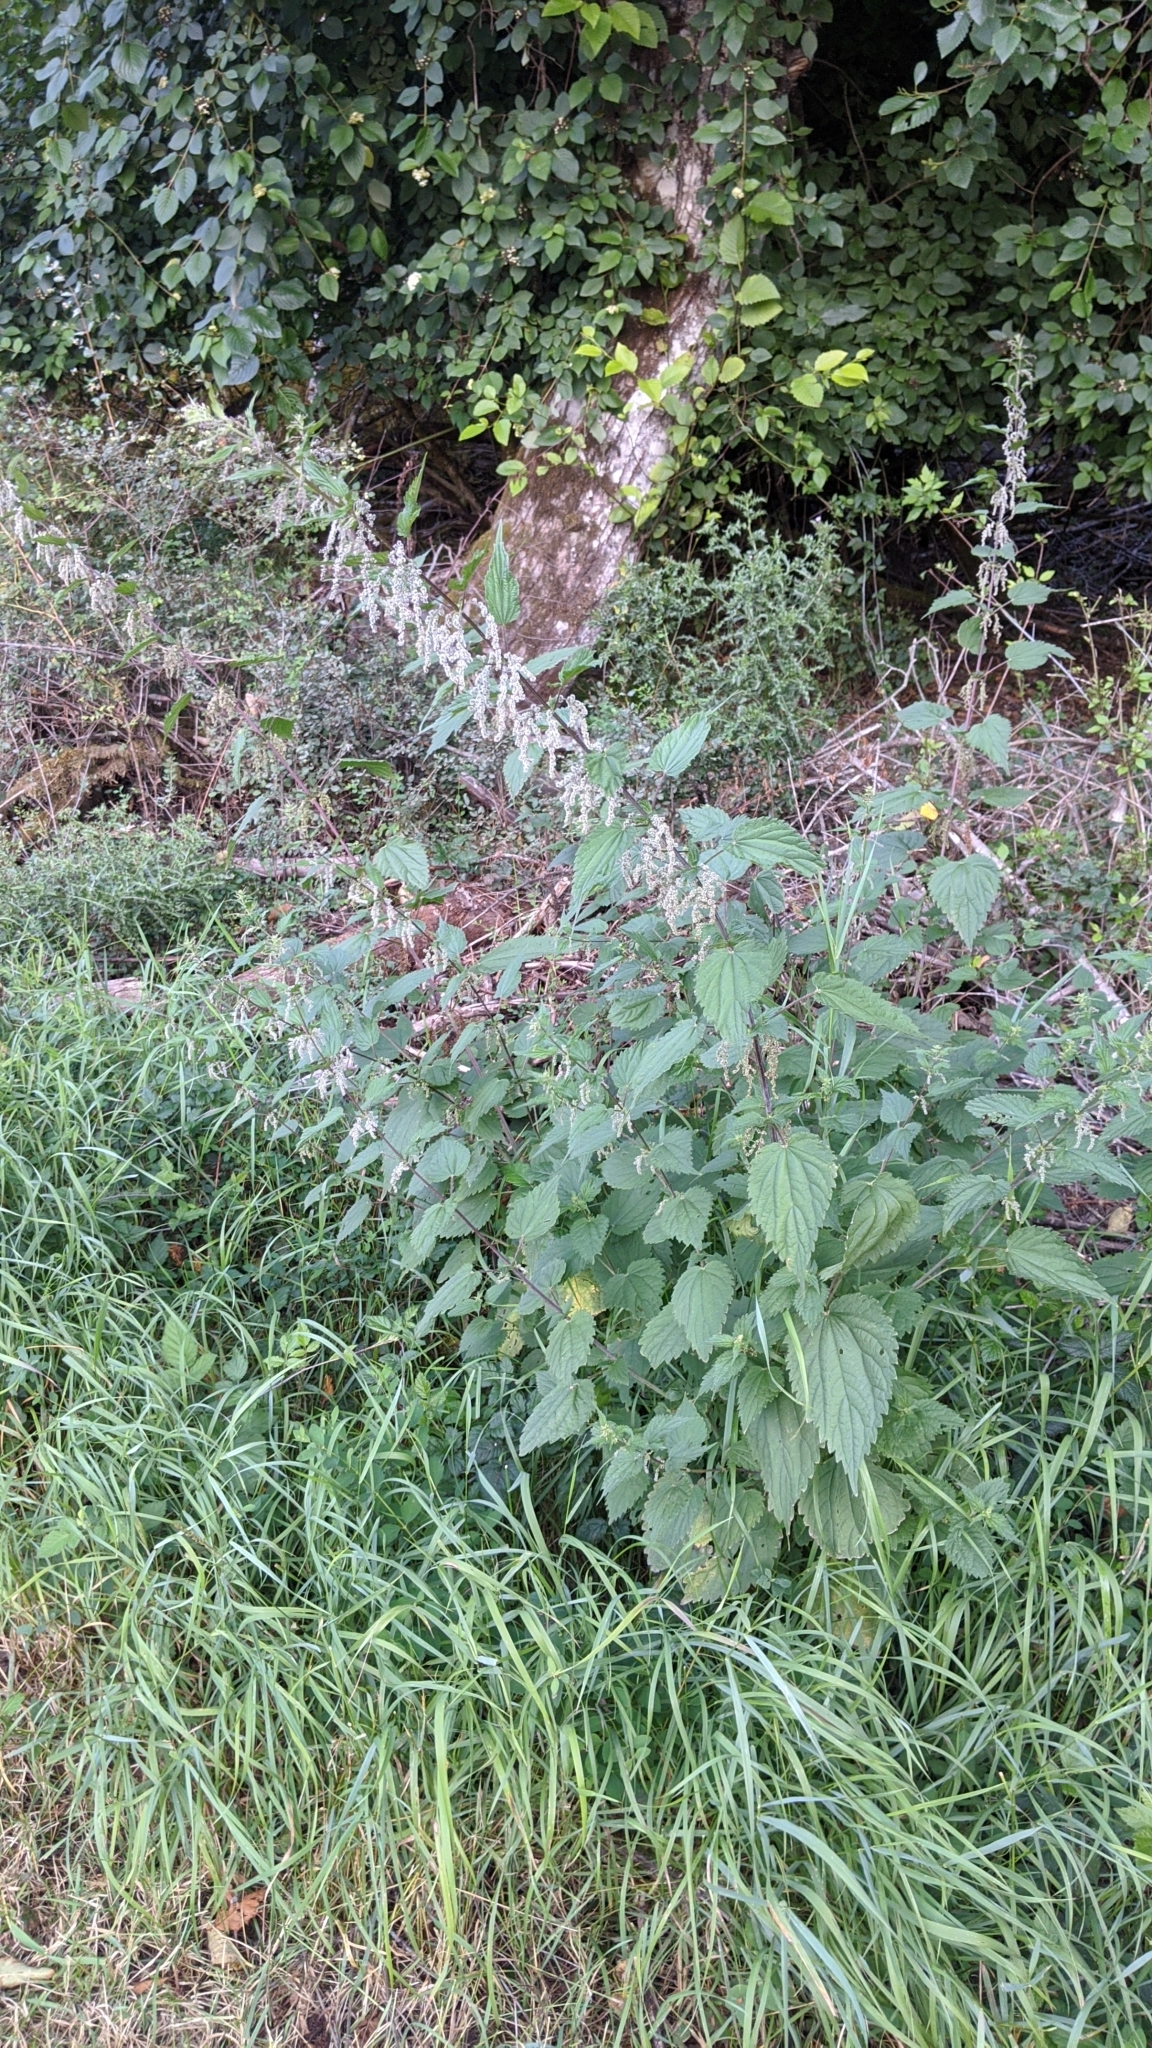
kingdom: Plantae
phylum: Tracheophyta
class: Magnoliopsida
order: Rosales
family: Urticaceae
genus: Urtica
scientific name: Urtica dioica
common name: Common nettle
